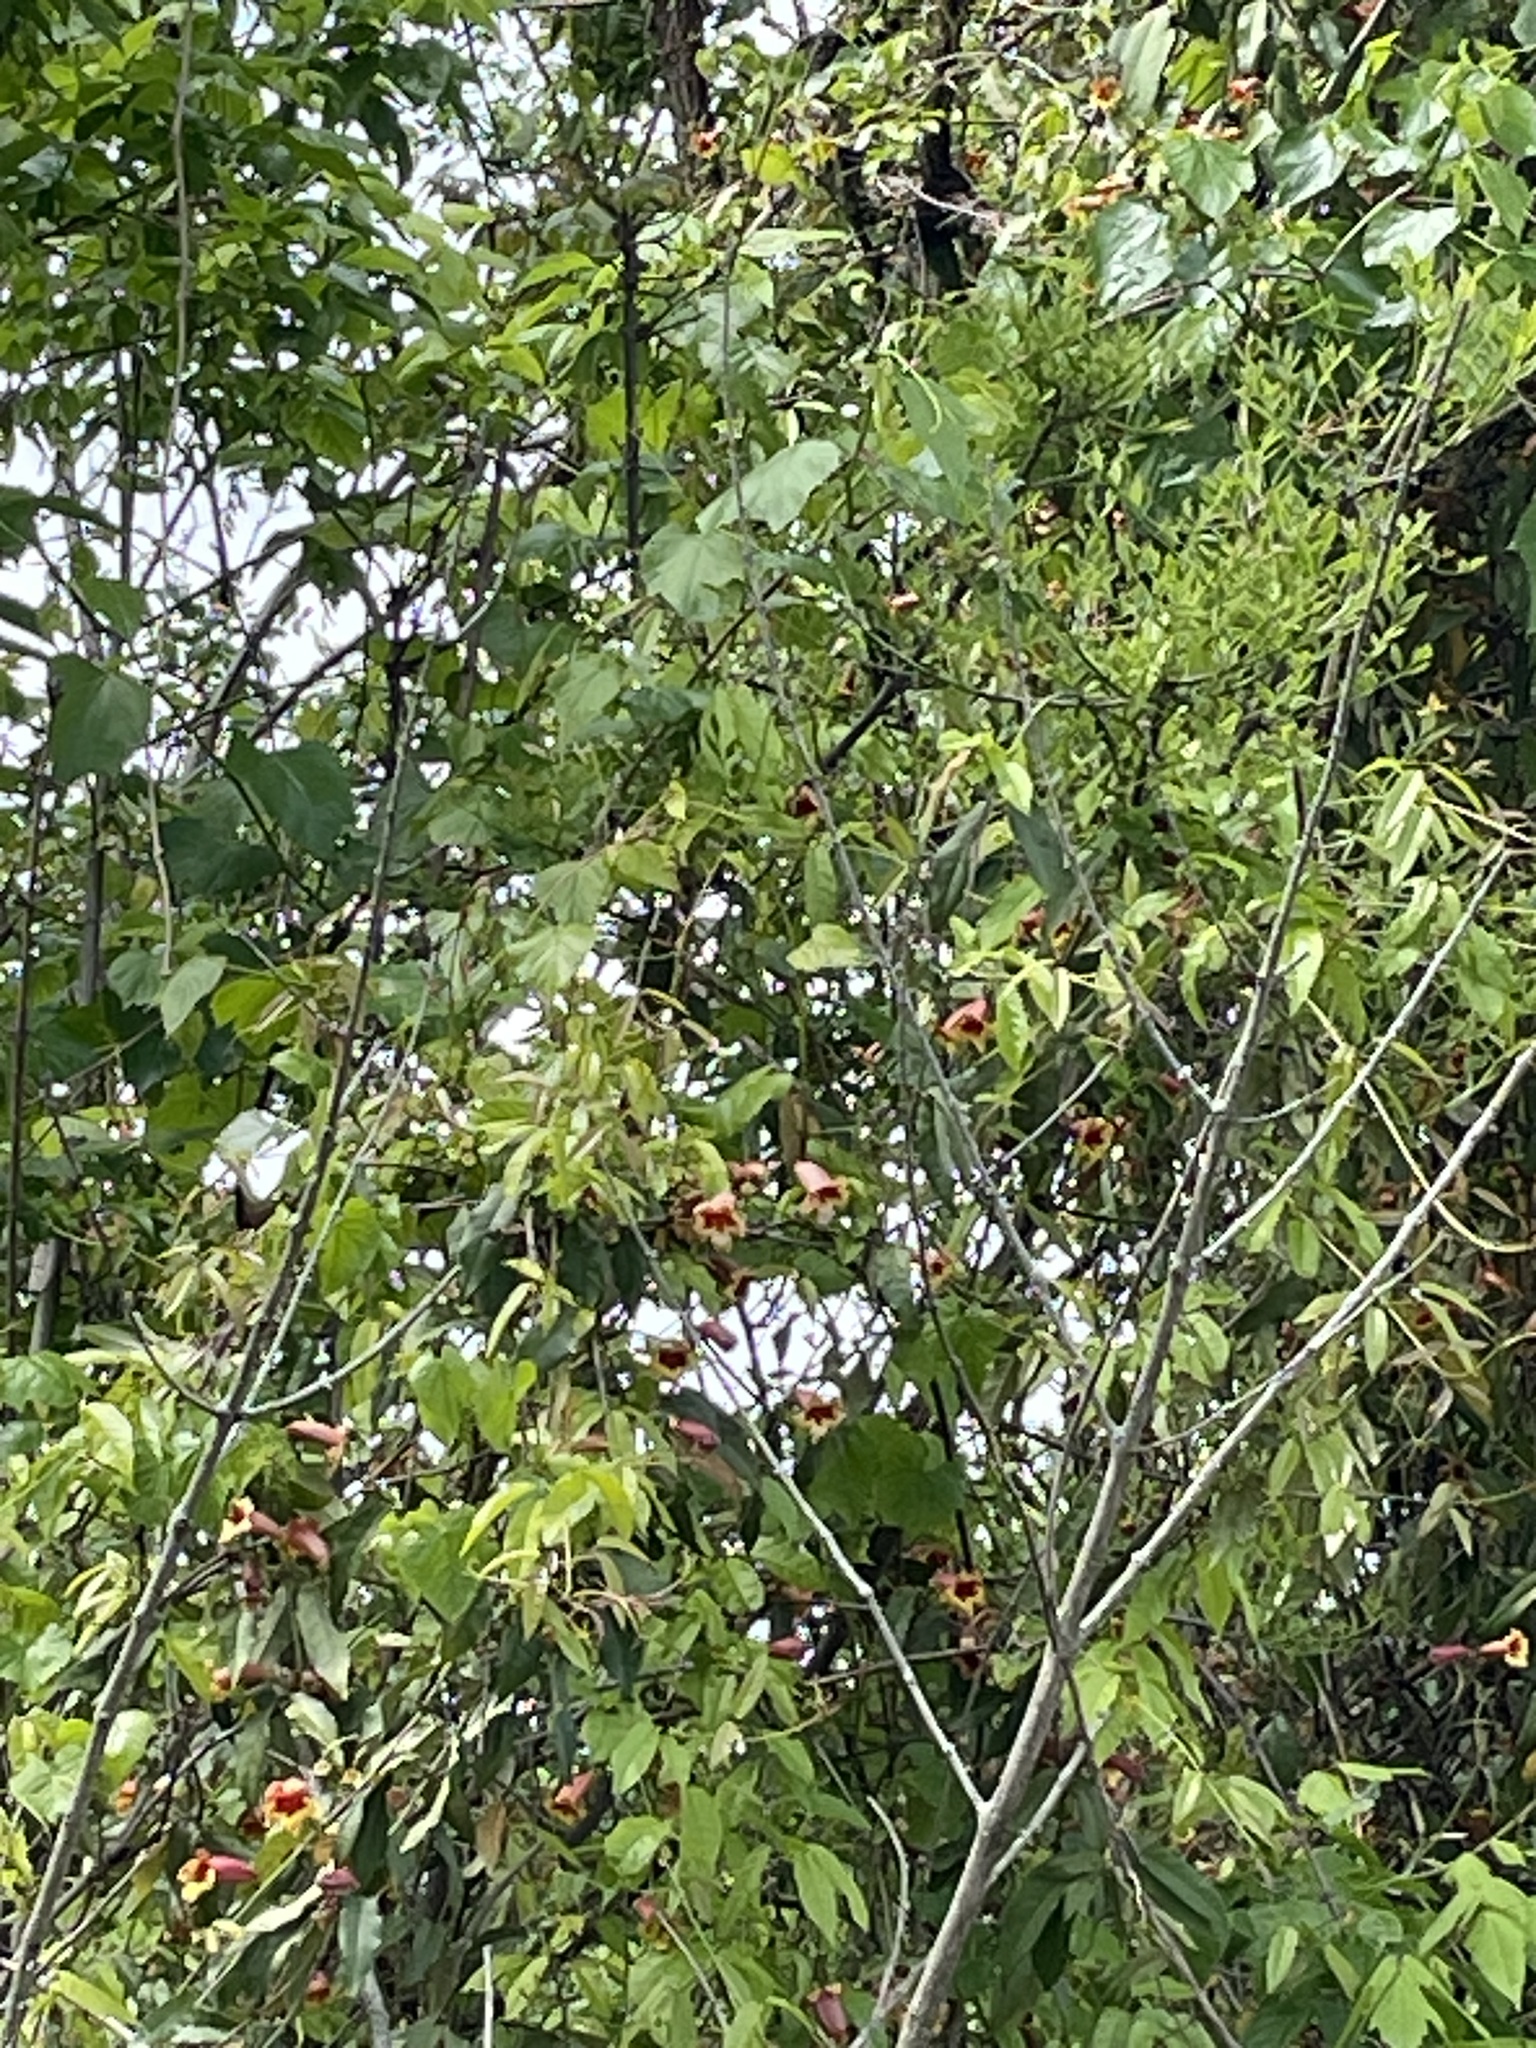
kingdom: Plantae
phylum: Tracheophyta
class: Magnoliopsida
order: Lamiales
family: Bignoniaceae
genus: Bignonia
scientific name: Bignonia capreolata
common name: Crossvine
